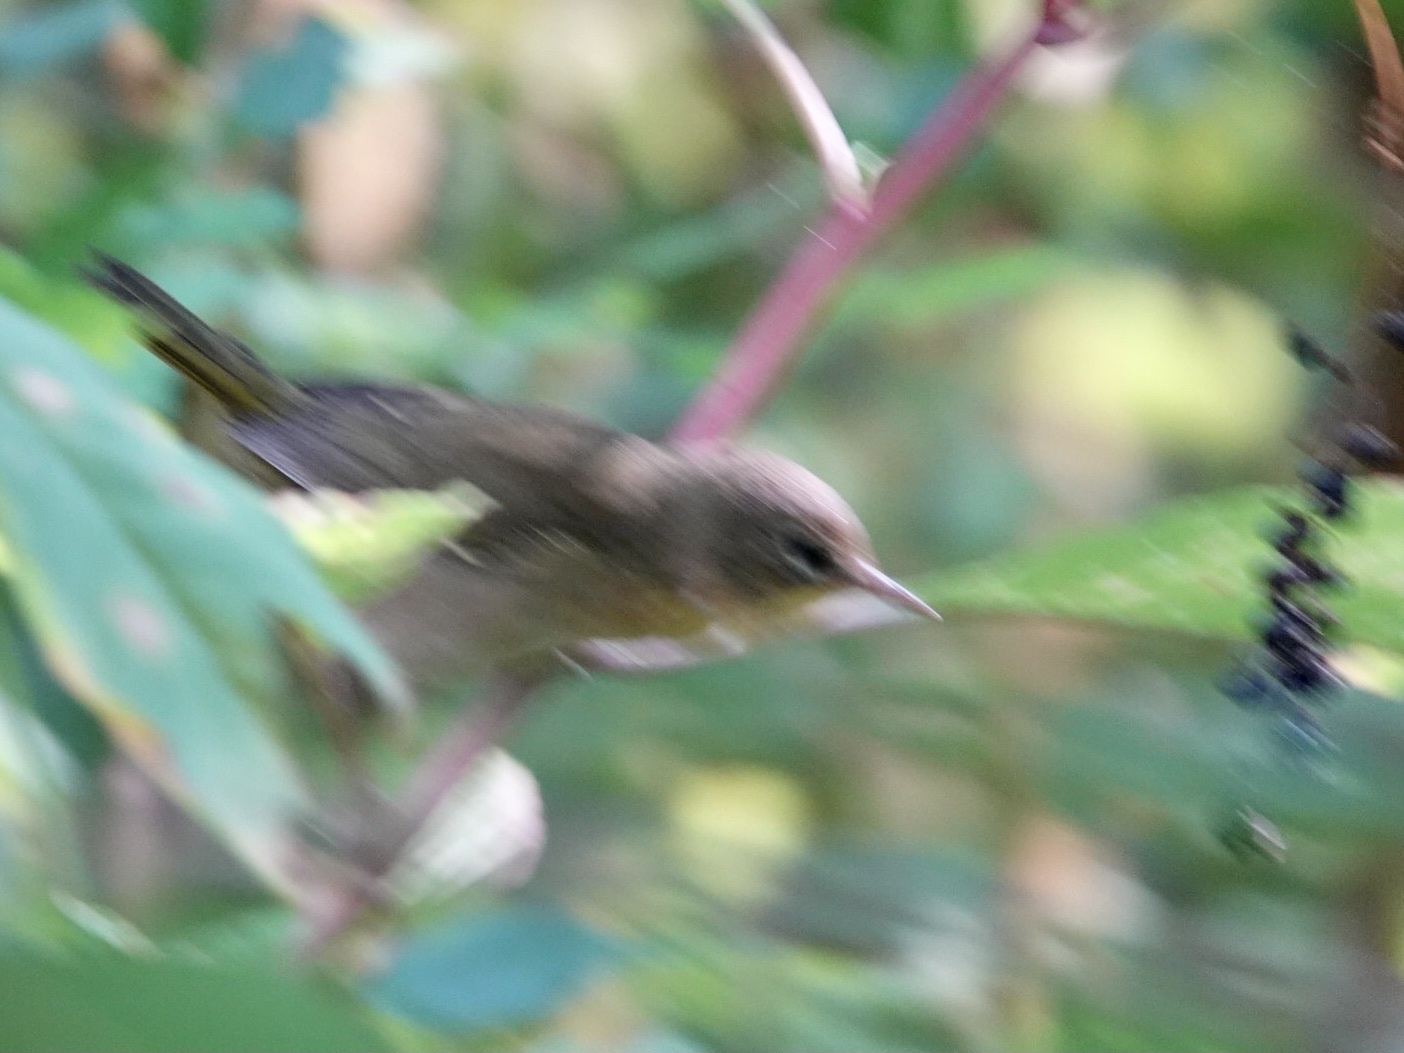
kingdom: Animalia
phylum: Chordata
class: Aves
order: Passeriformes
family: Parulidae
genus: Geothlypis
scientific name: Geothlypis trichas
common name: Common yellowthroat
